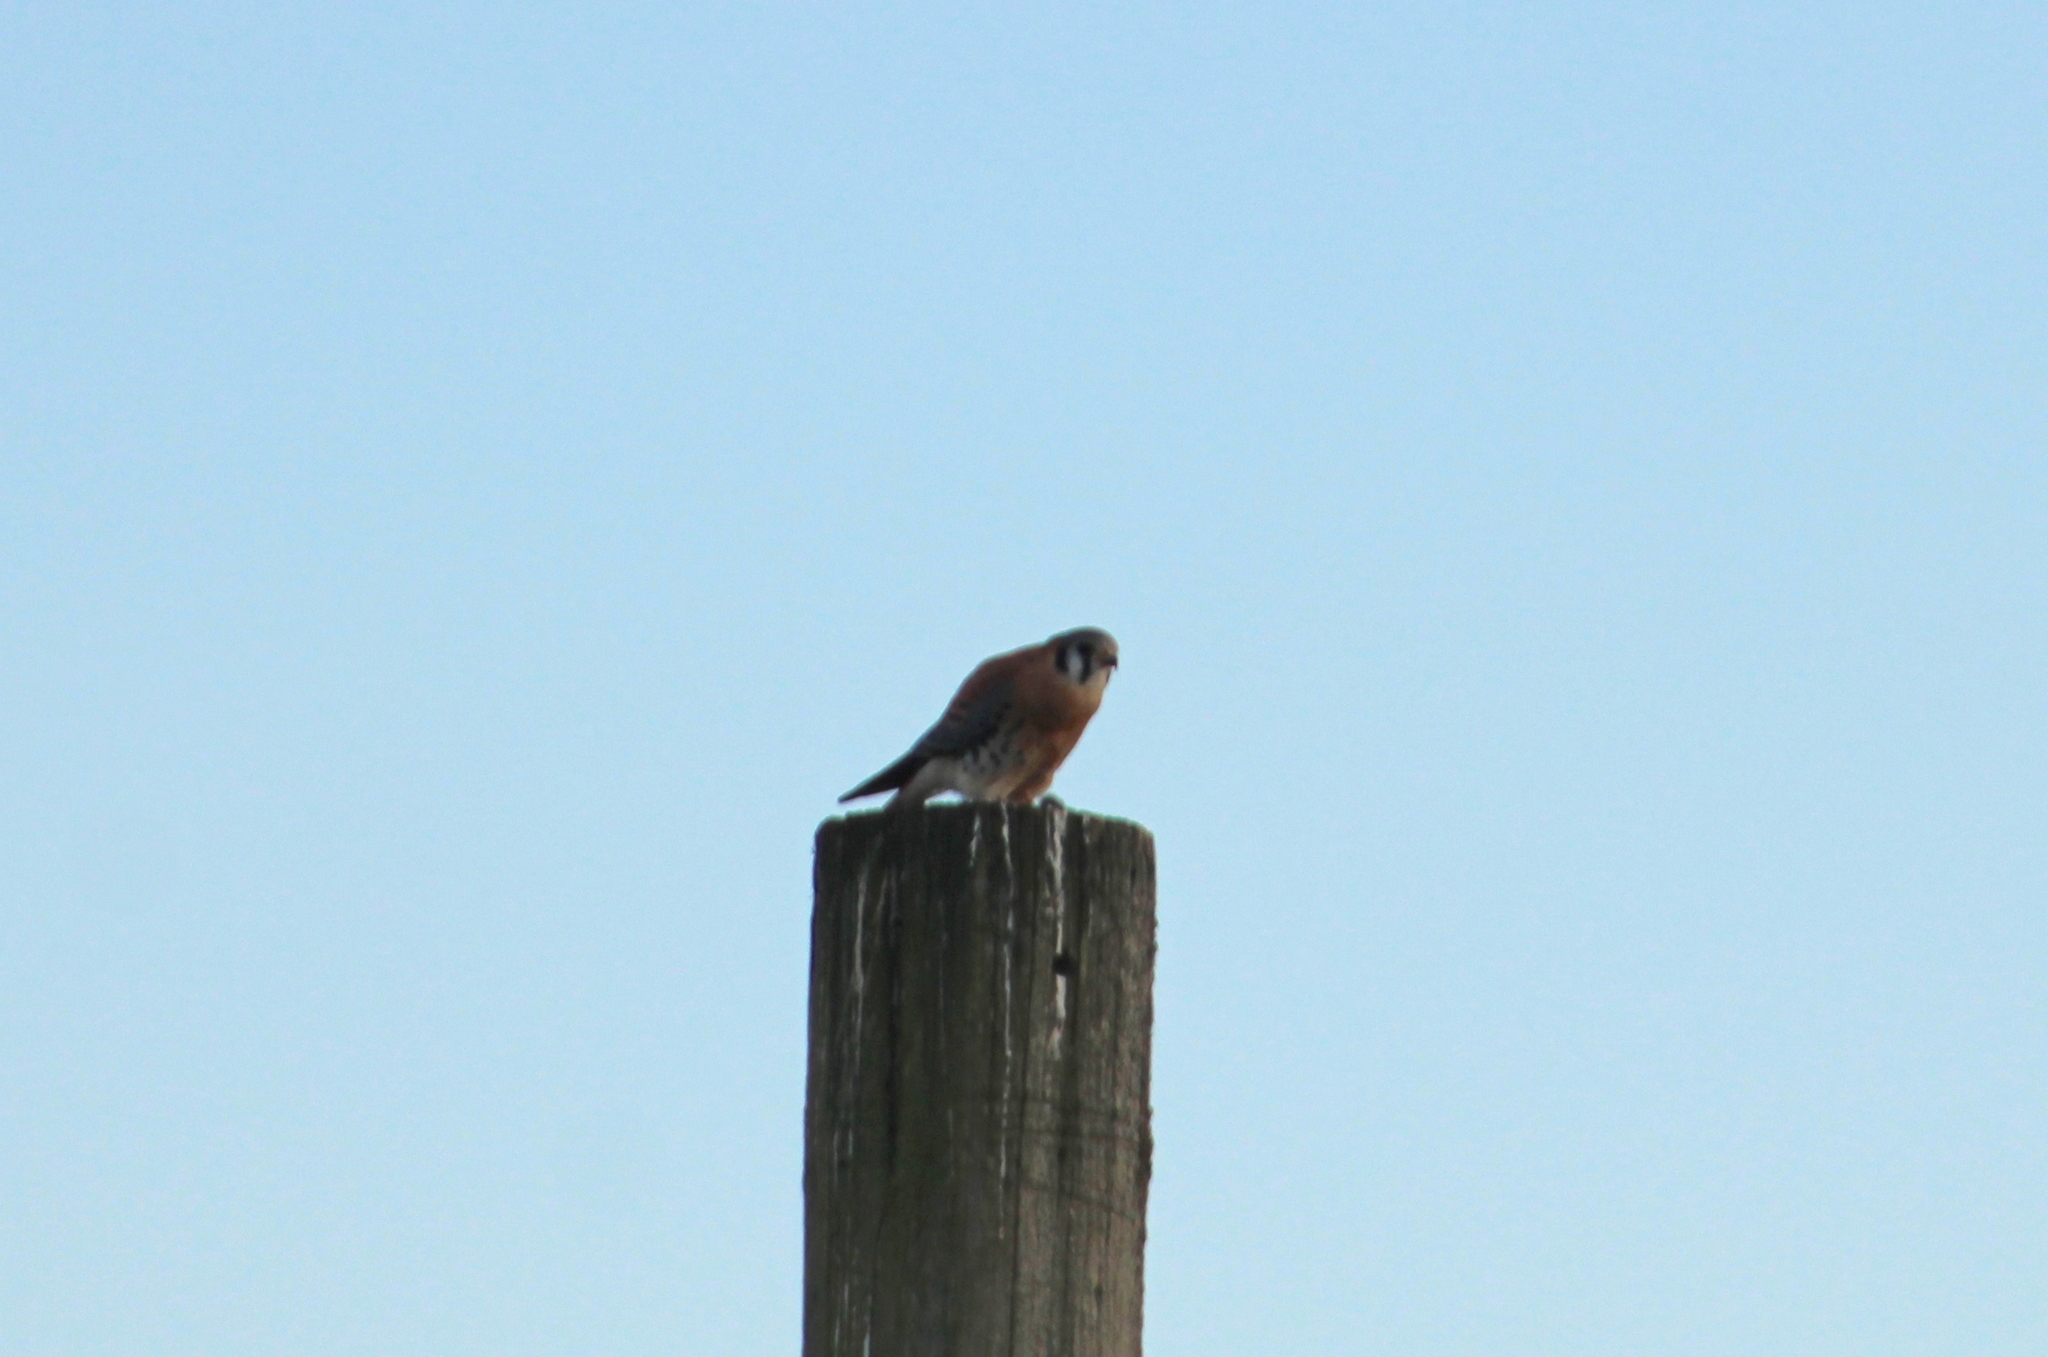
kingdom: Animalia
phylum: Chordata
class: Aves
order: Falconiformes
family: Falconidae
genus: Falco
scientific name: Falco sparverius
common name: American kestrel
